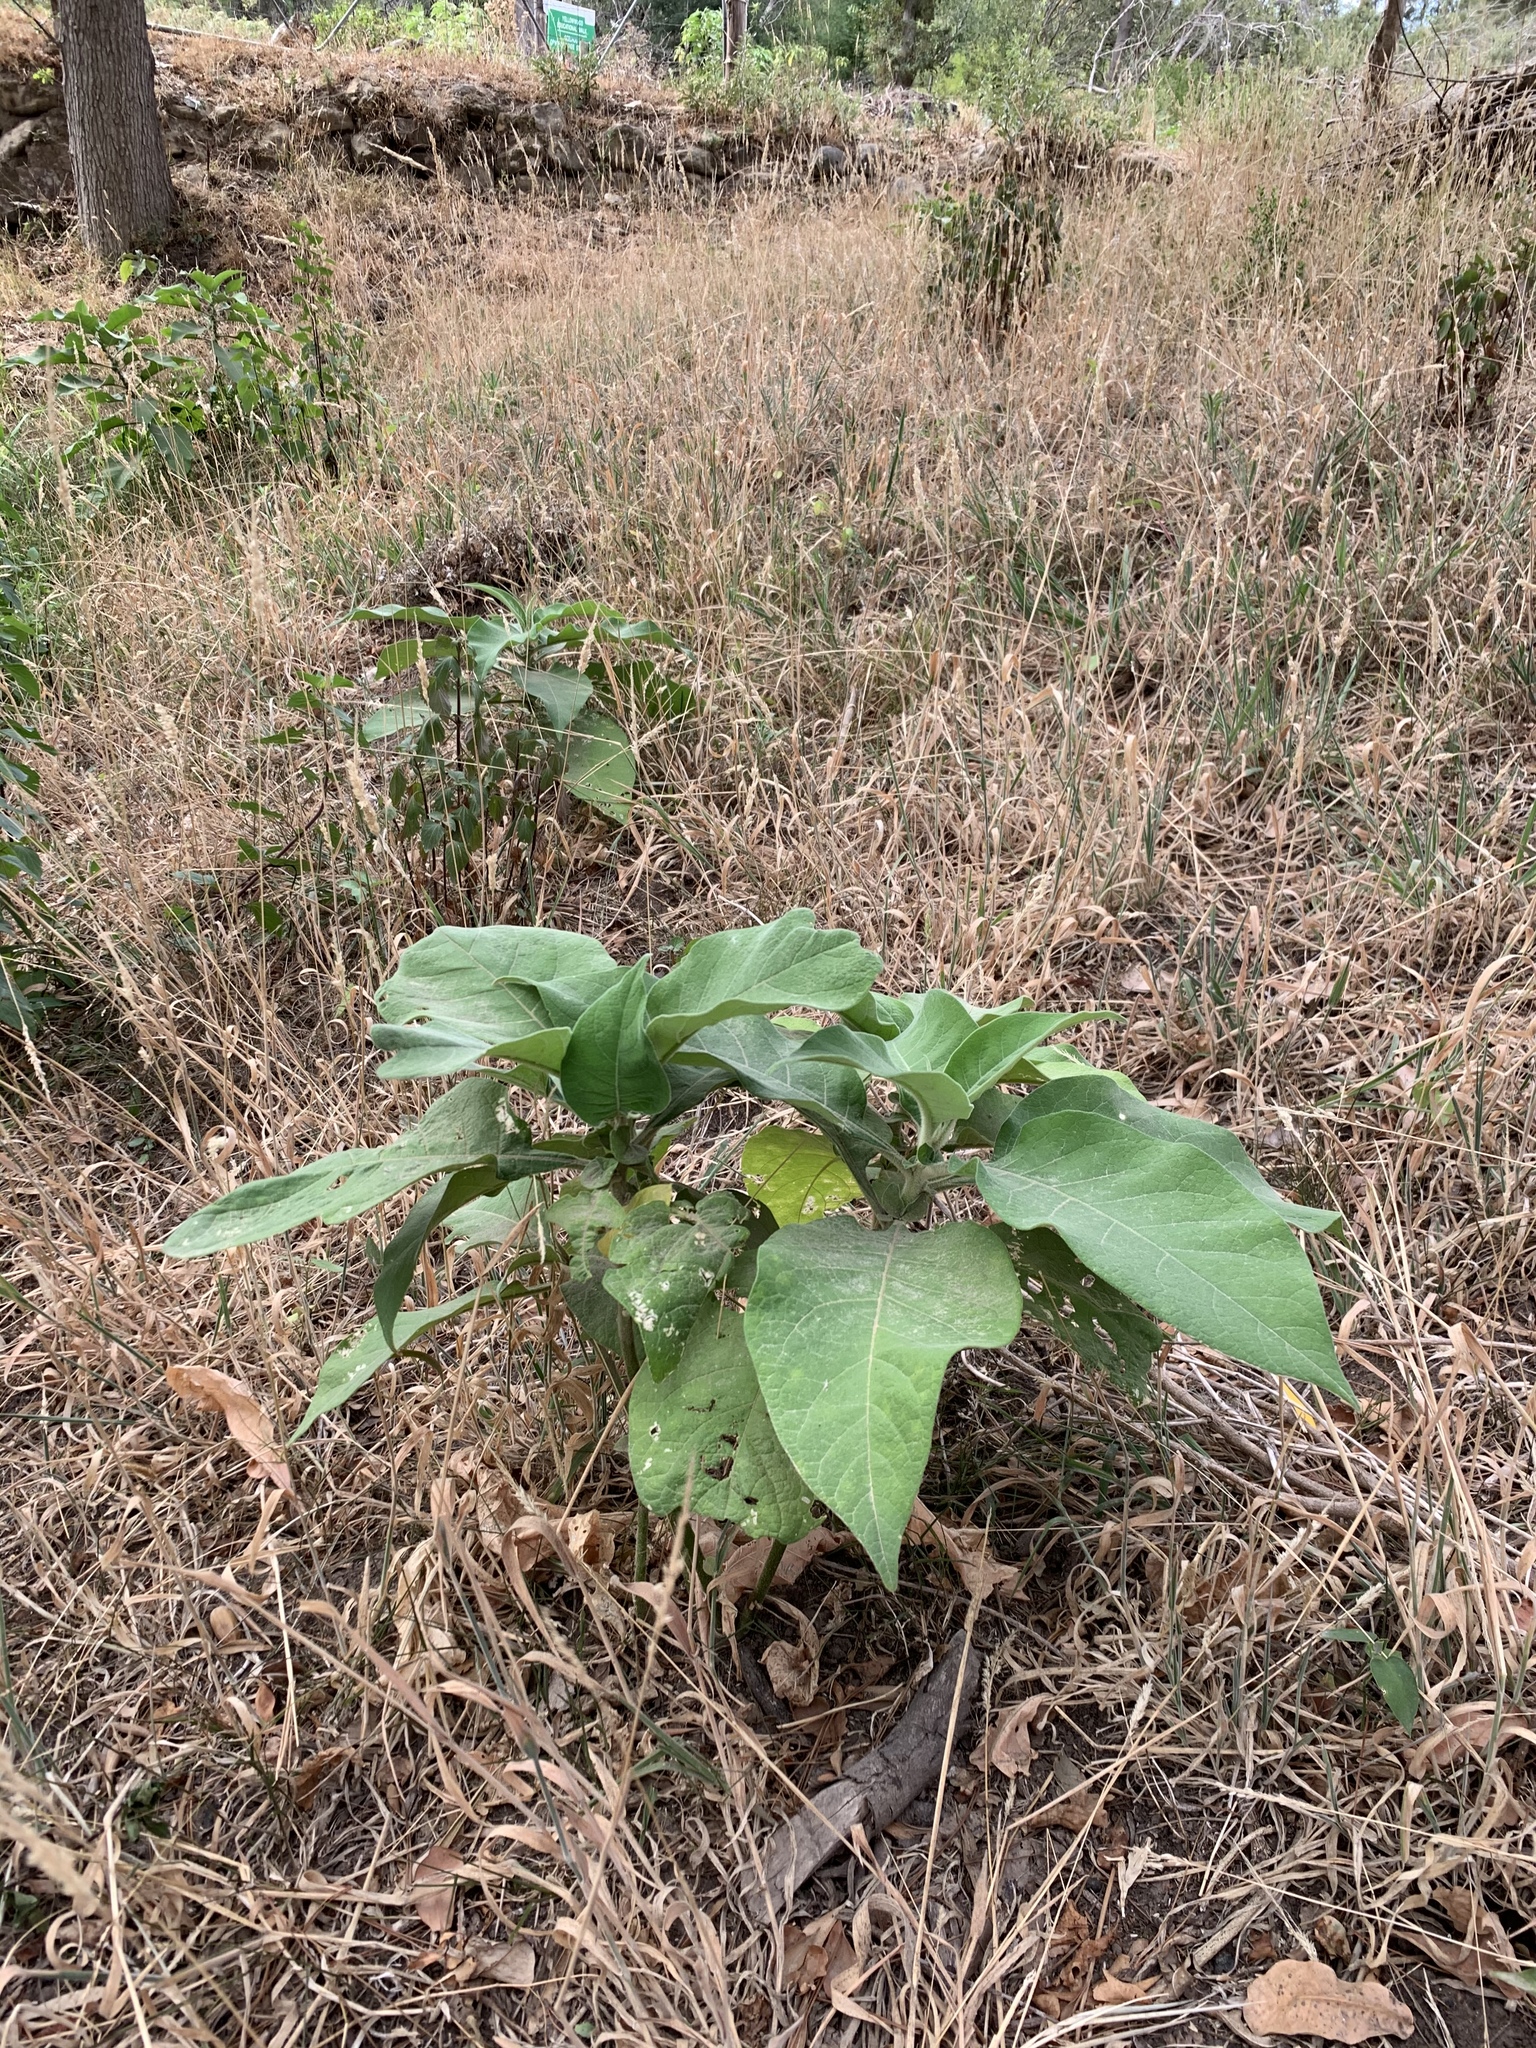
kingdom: Plantae
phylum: Tracheophyta
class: Magnoliopsida
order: Solanales
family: Solanaceae
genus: Solanum
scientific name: Solanum mauritianum
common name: Earleaf nightshade
